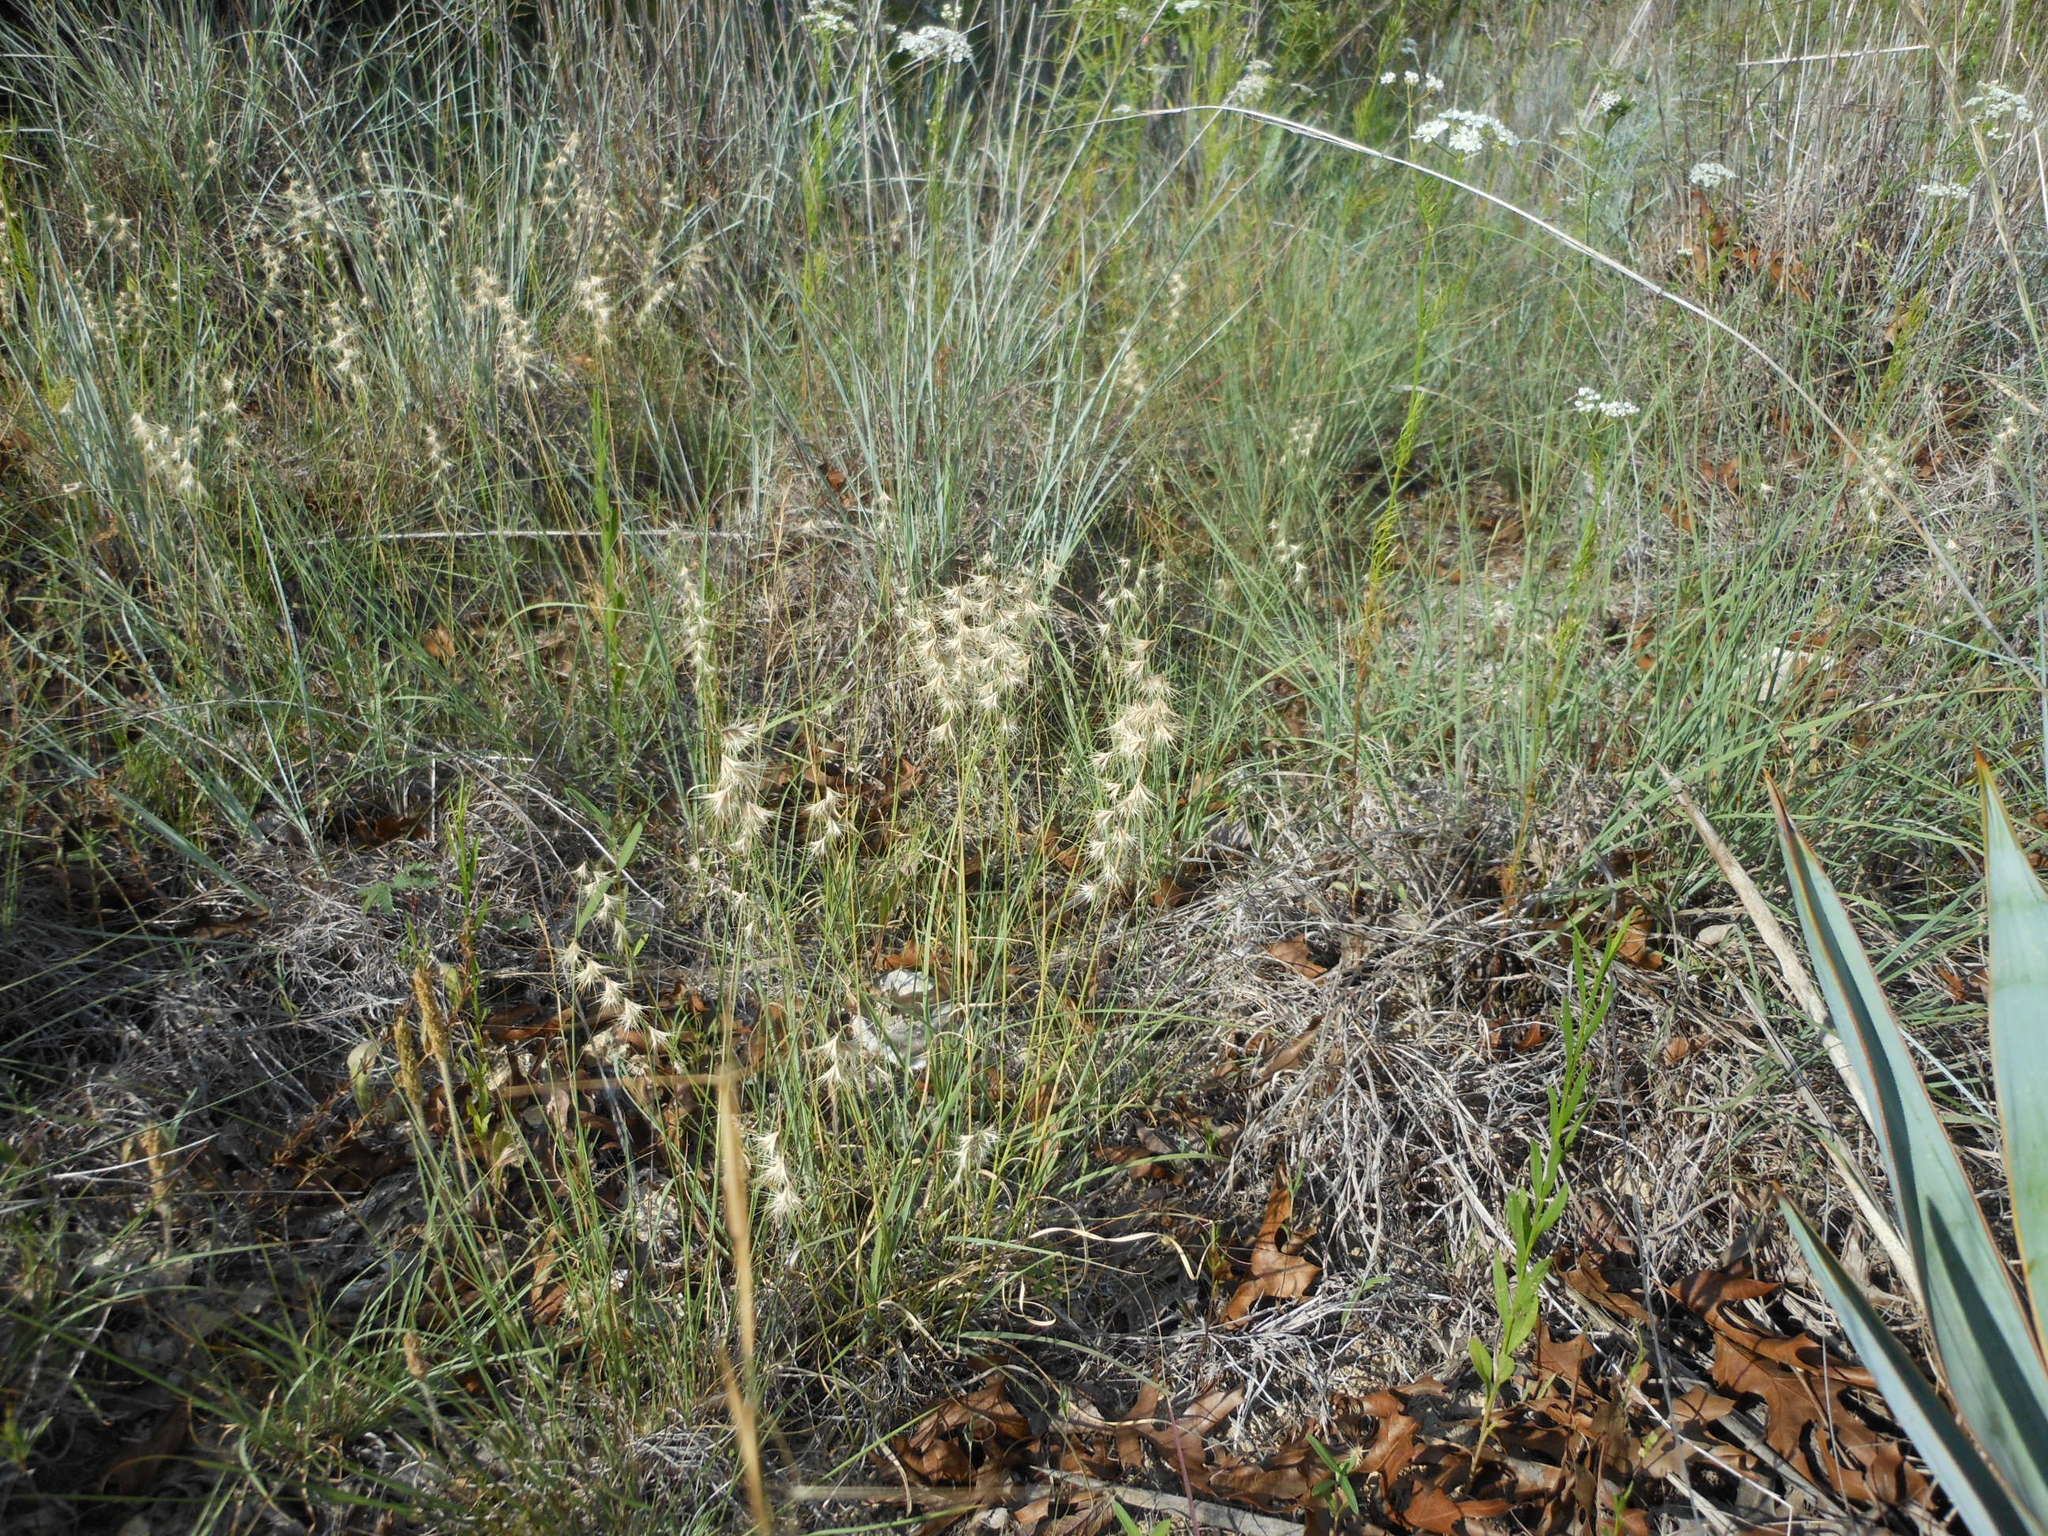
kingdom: Plantae
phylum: Tracheophyta
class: Liliopsida
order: Poales
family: Poaceae
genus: Bouteloua
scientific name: Bouteloua rigidiseta
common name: Texas grama
